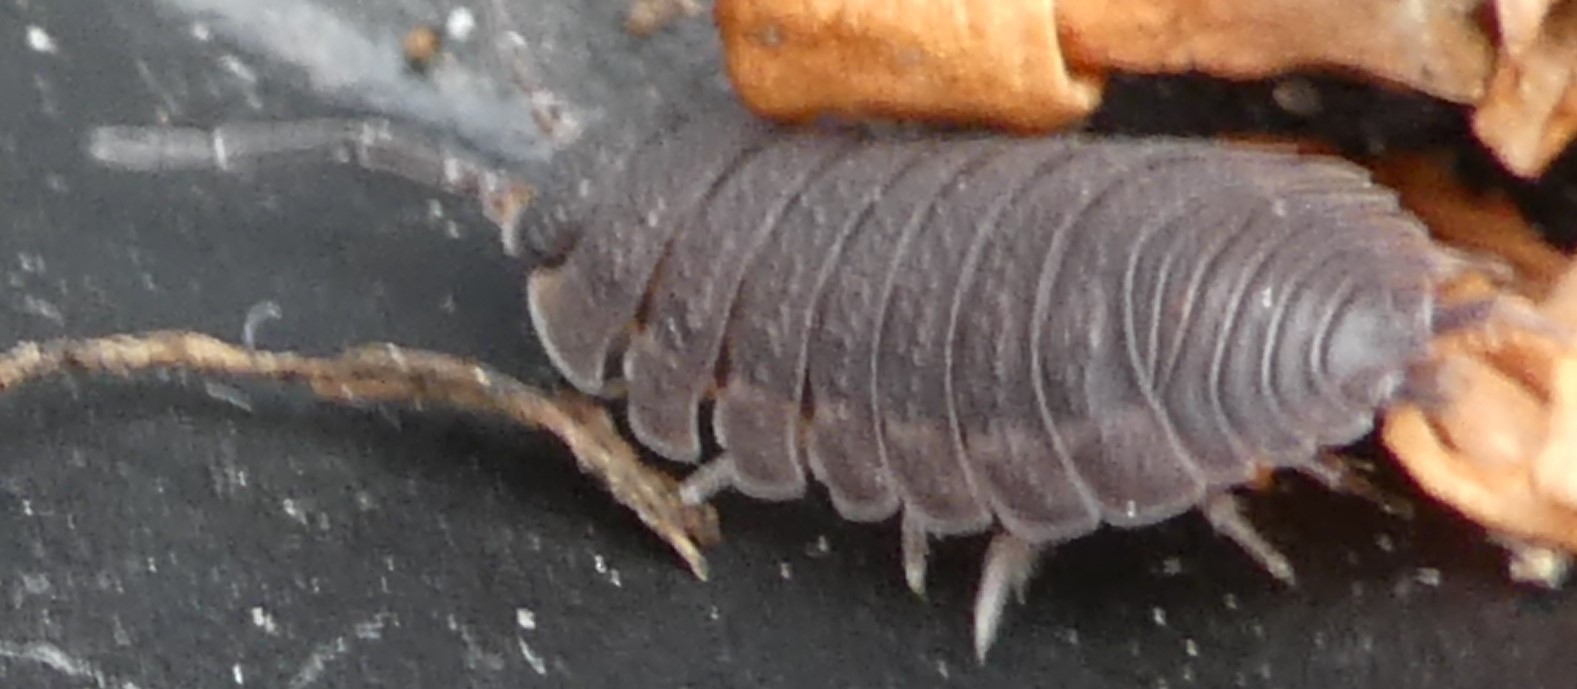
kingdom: Animalia
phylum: Arthropoda
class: Malacostraca
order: Isopoda
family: Porcellionidae
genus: Porcellio
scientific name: Porcellio scaber
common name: Common rough woodlouse
